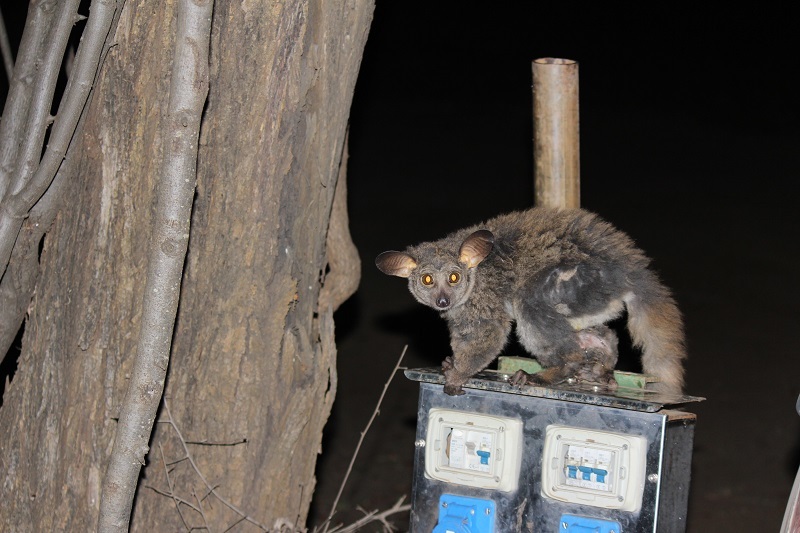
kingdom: Animalia
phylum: Chordata
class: Mammalia
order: Primates
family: Galagidae
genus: Otolemur
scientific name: Otolemur crassicaudatus
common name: Brown greater galago
